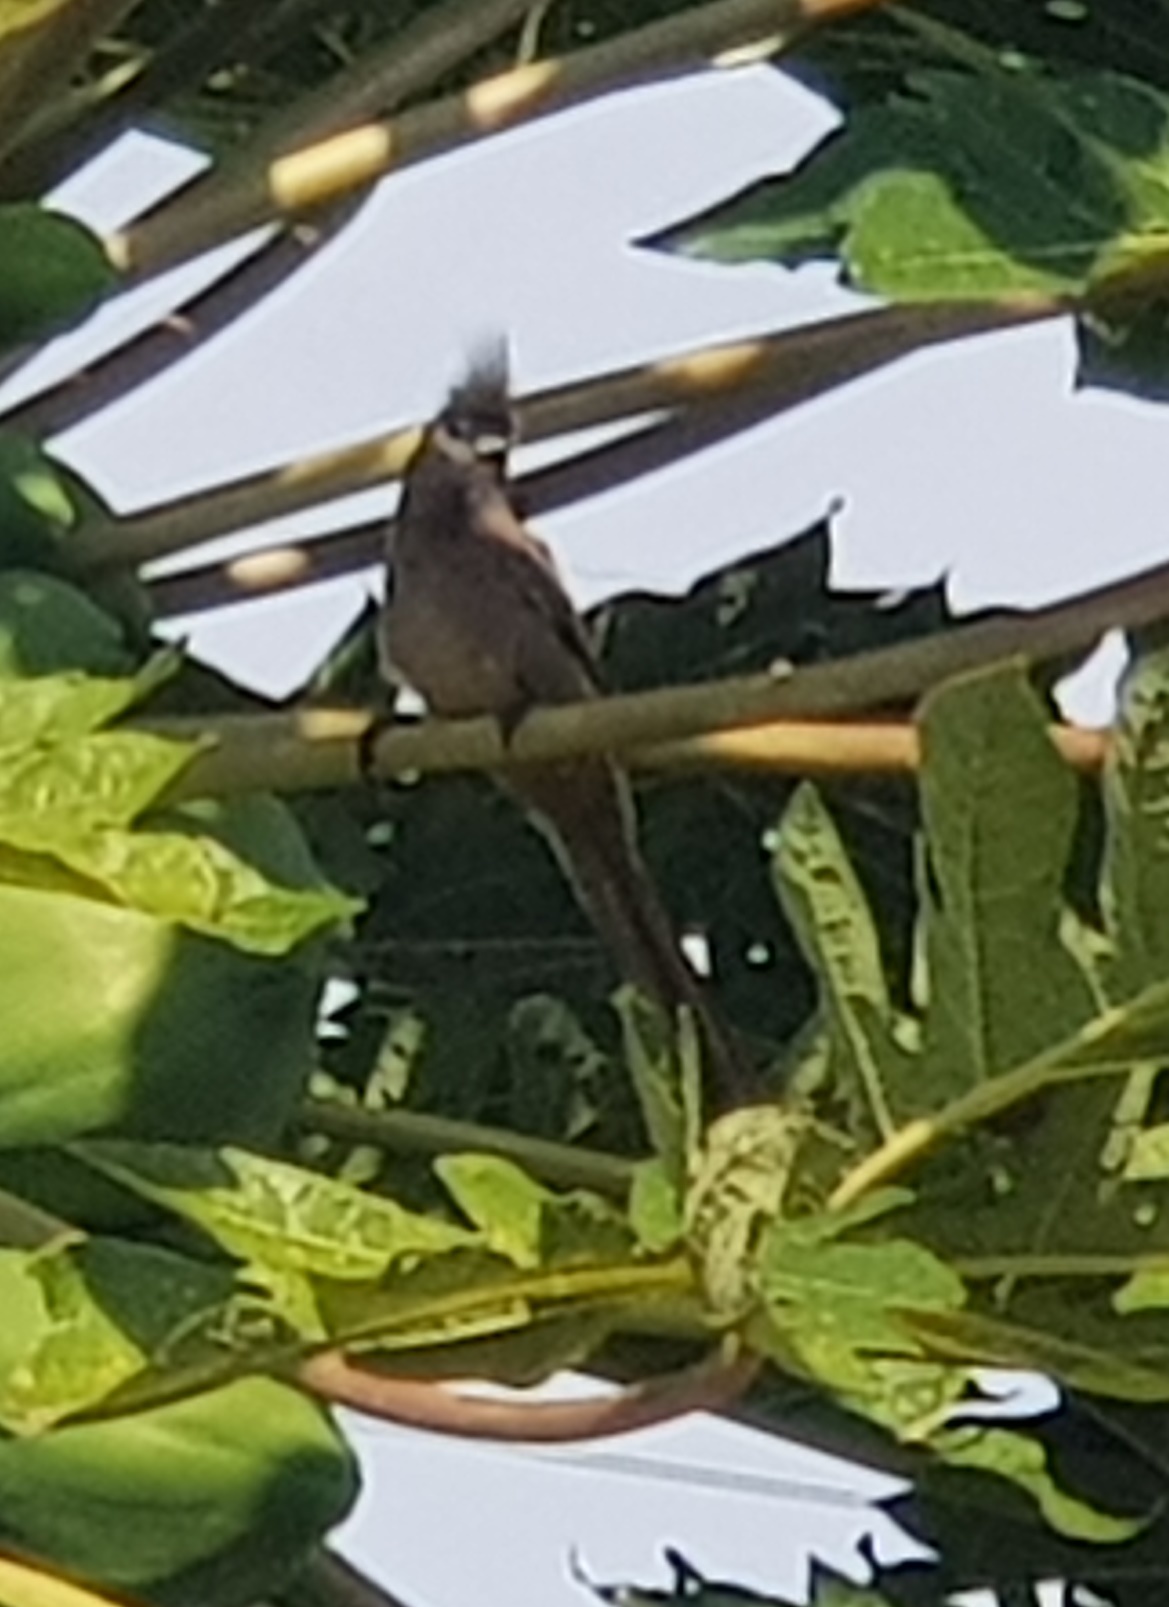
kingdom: Animalia
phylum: Chordata
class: Aves
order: Coliiformes
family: Coliidae
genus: Colius
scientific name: Colius striatus
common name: Speckled mousebird
